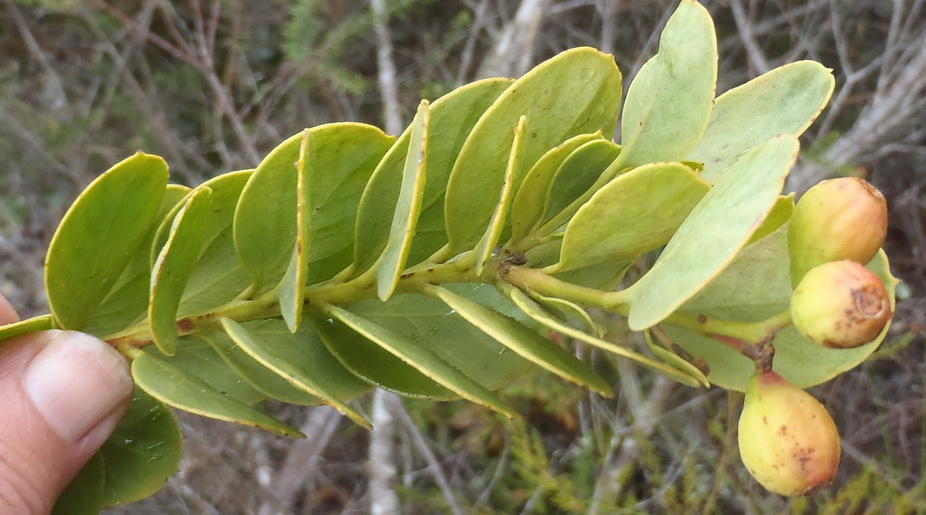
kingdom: Plantae
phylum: Tracheophyta
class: Magnoliopsida
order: Santalales
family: Santalaceae
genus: Osyris
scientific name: Osyris compressa
